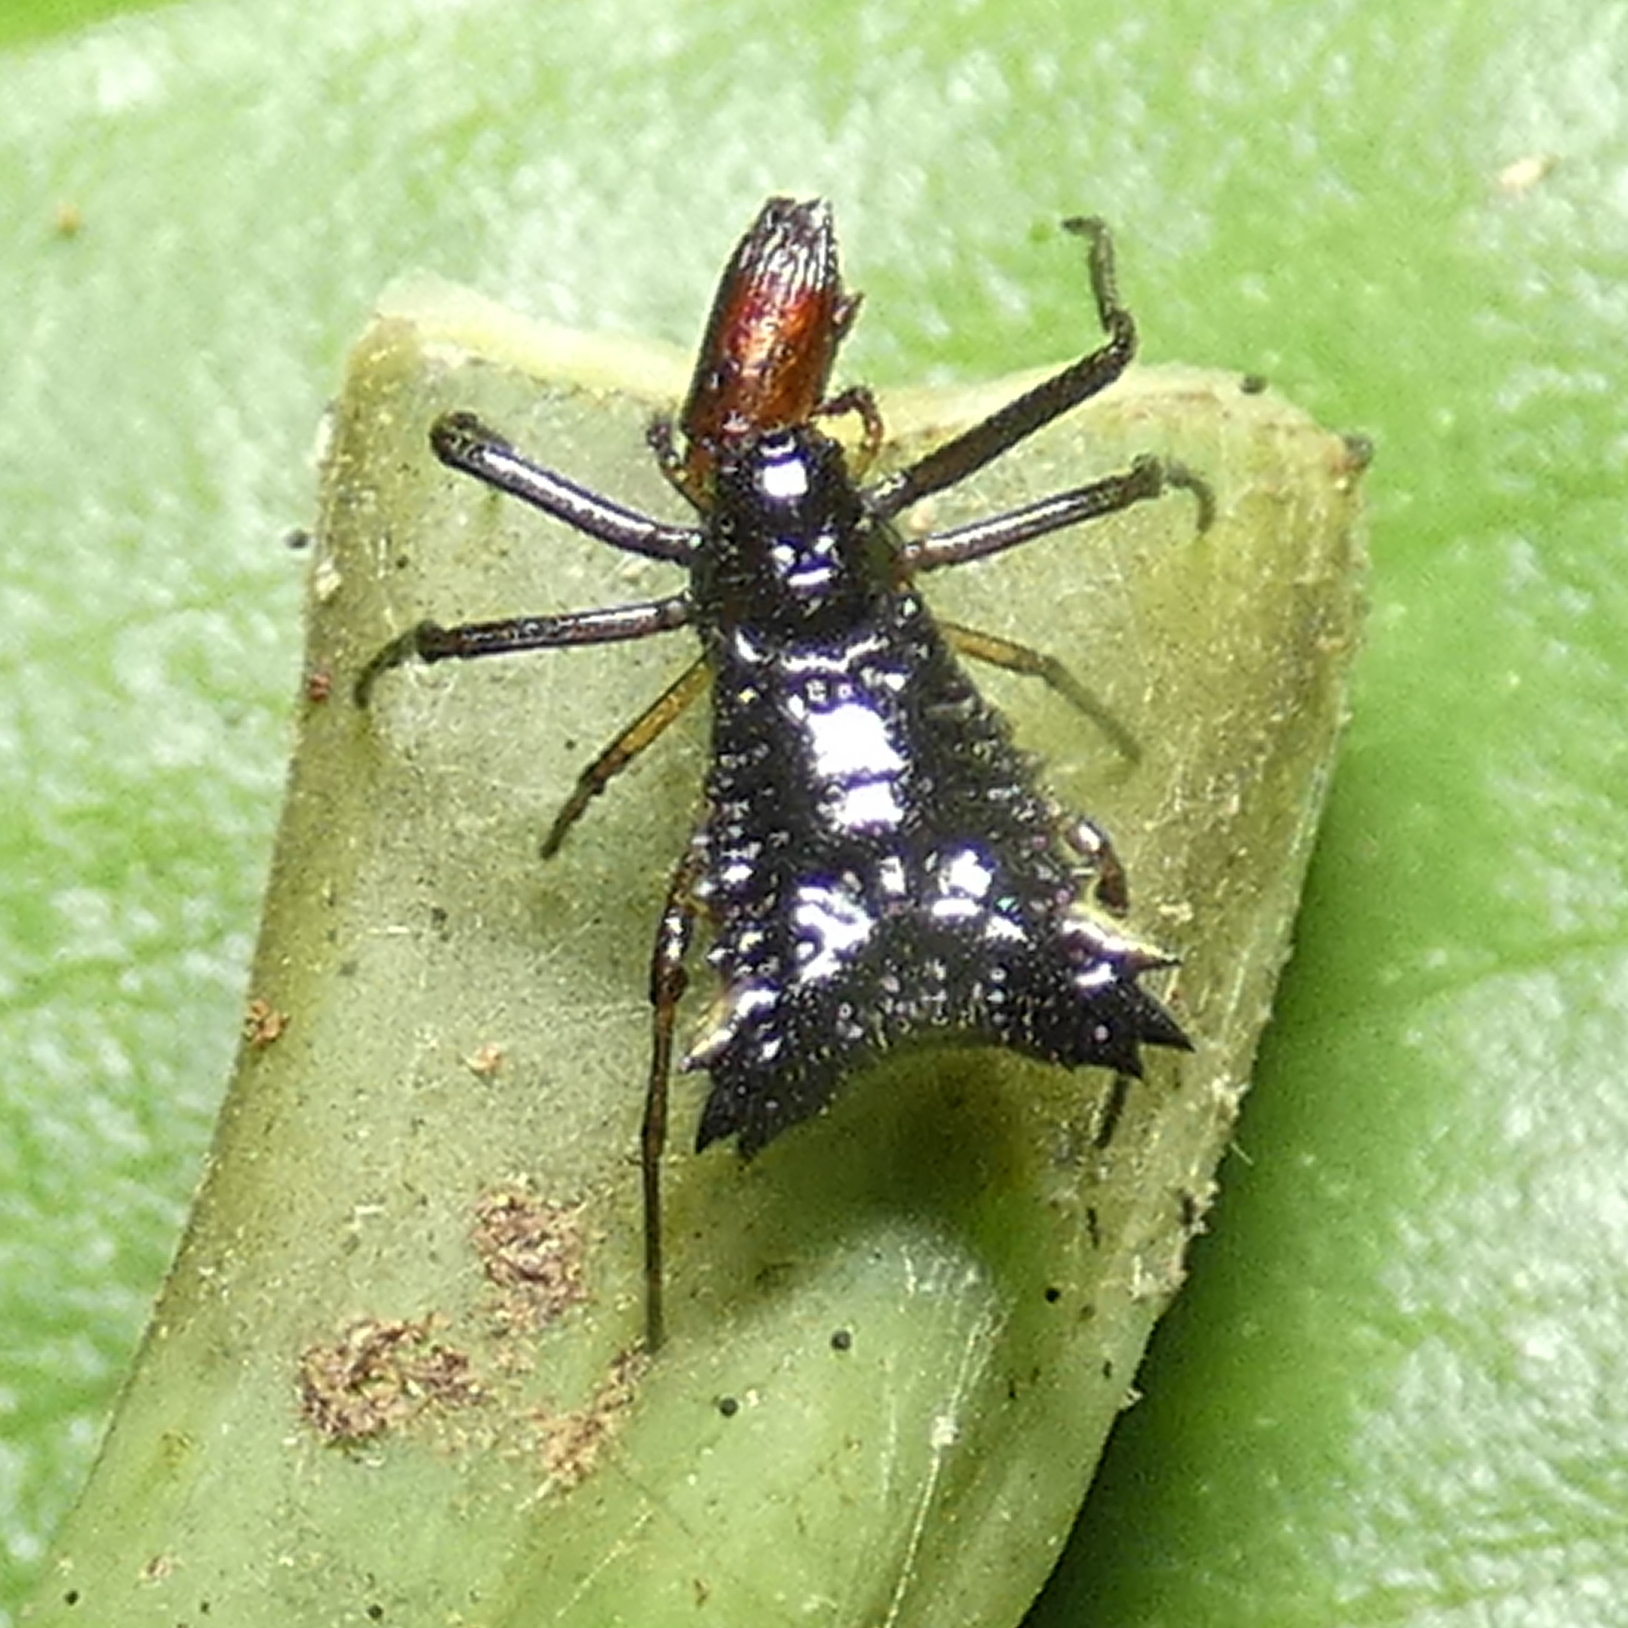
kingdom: Animalia
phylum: Arthropoda
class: Arachnida
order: Araneae
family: Araneidae
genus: Micrathena
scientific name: Micrathena triangularis
